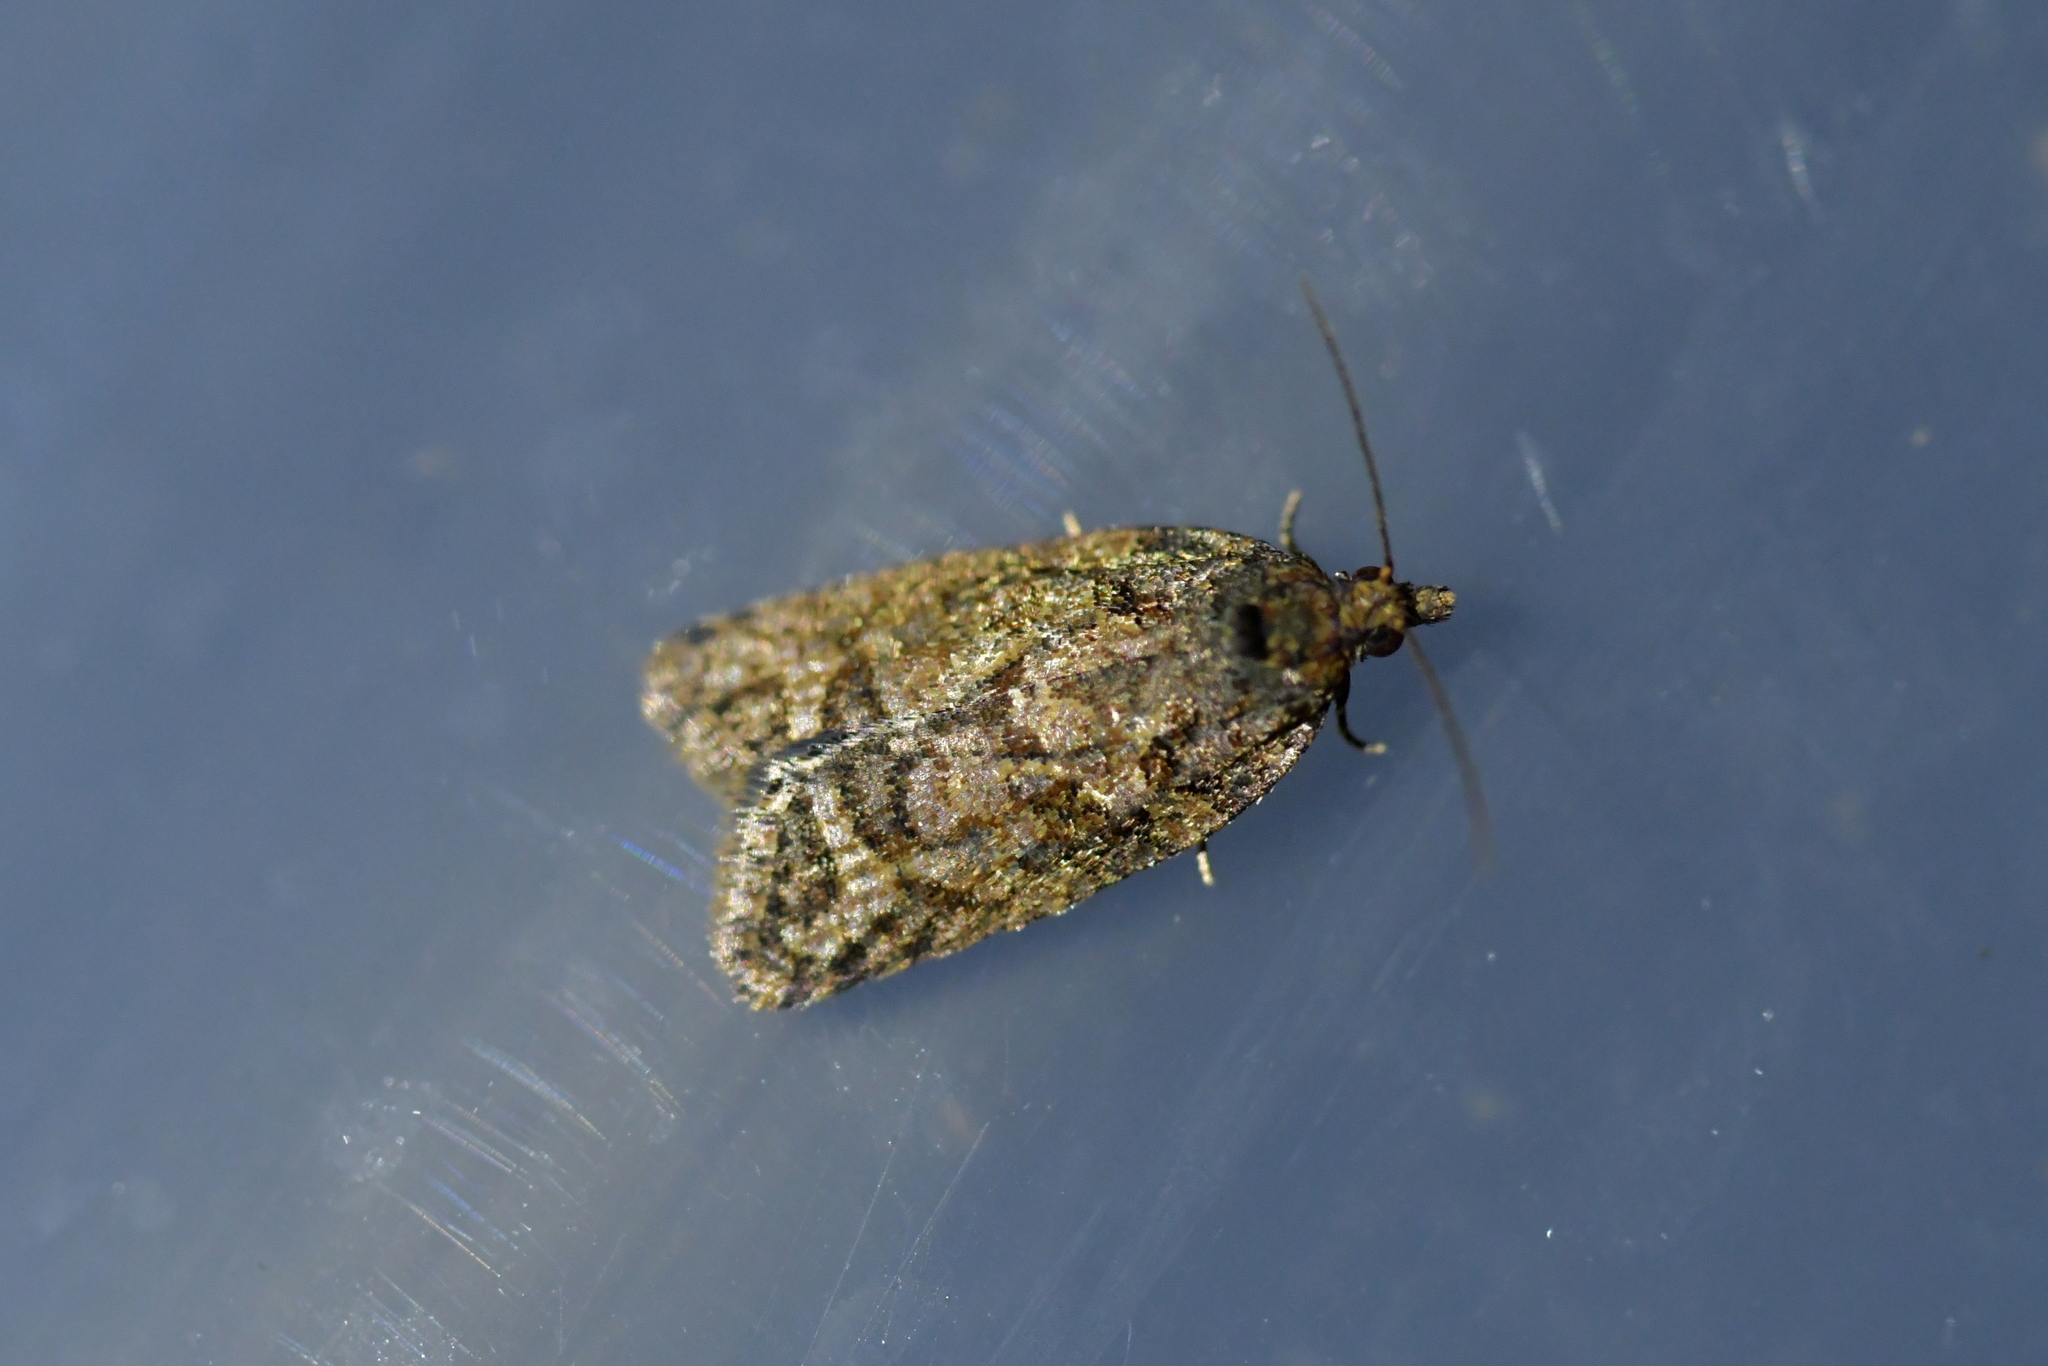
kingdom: Animalia
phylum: Arthropoda
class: Insecta
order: Lepidoptera
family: Tortricidae
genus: Capua
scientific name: Capua intractana
